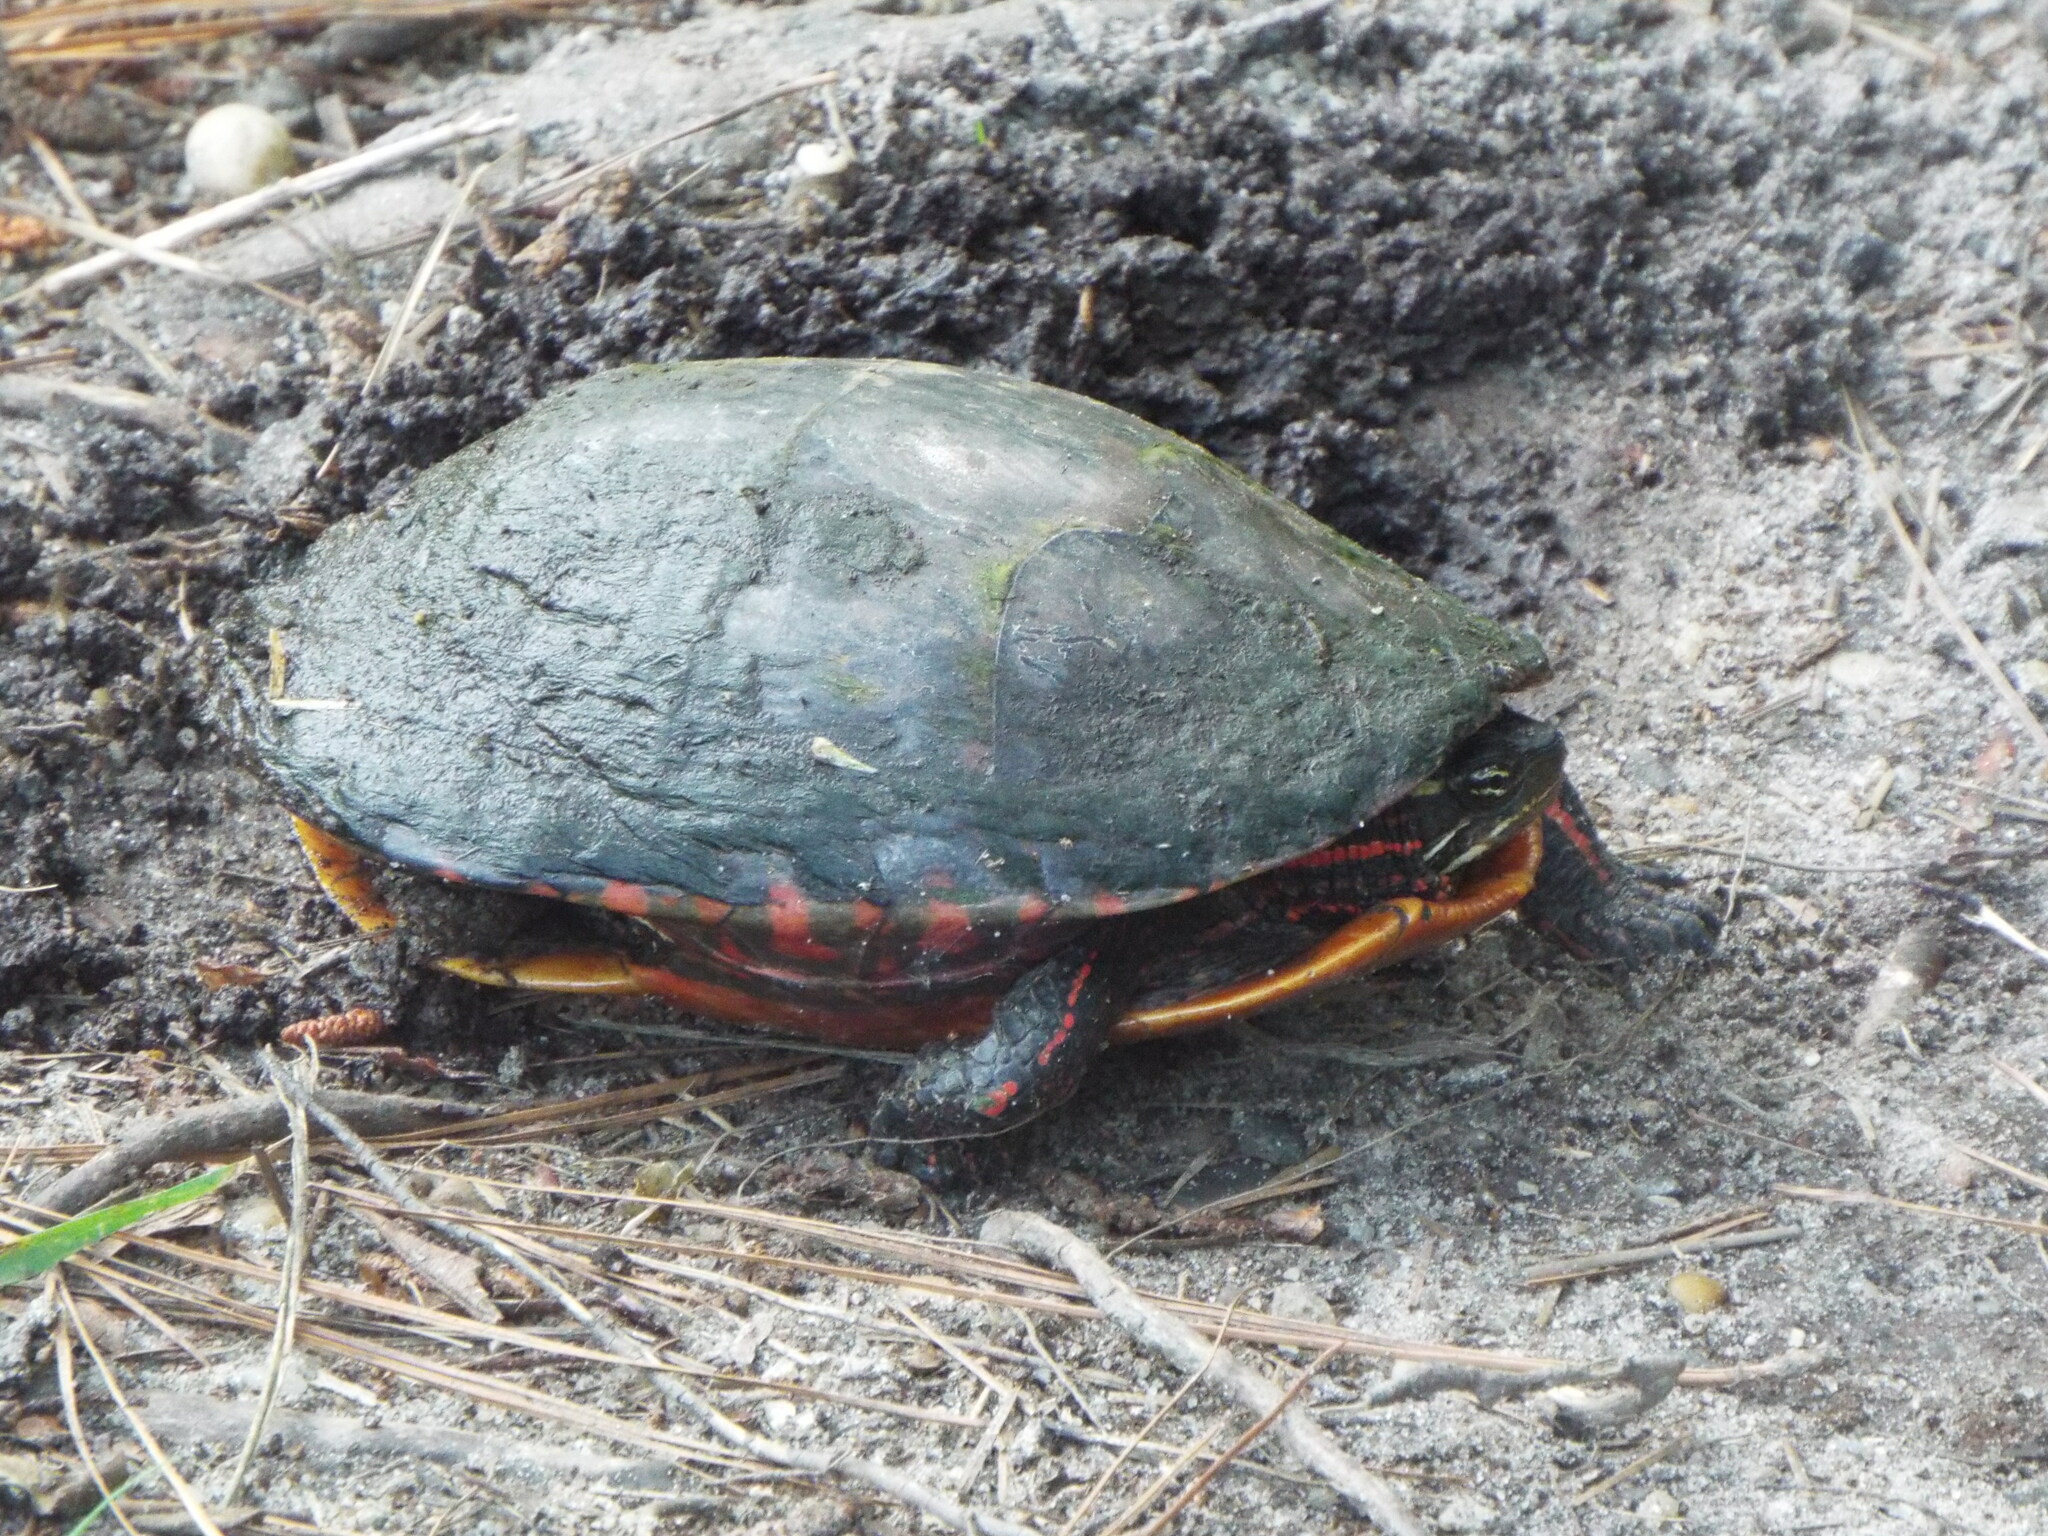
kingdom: Animalia
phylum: Chordata
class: Testudines
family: Emydidae
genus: Chrysemys
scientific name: Chrysemys picta
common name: Painted turtle
